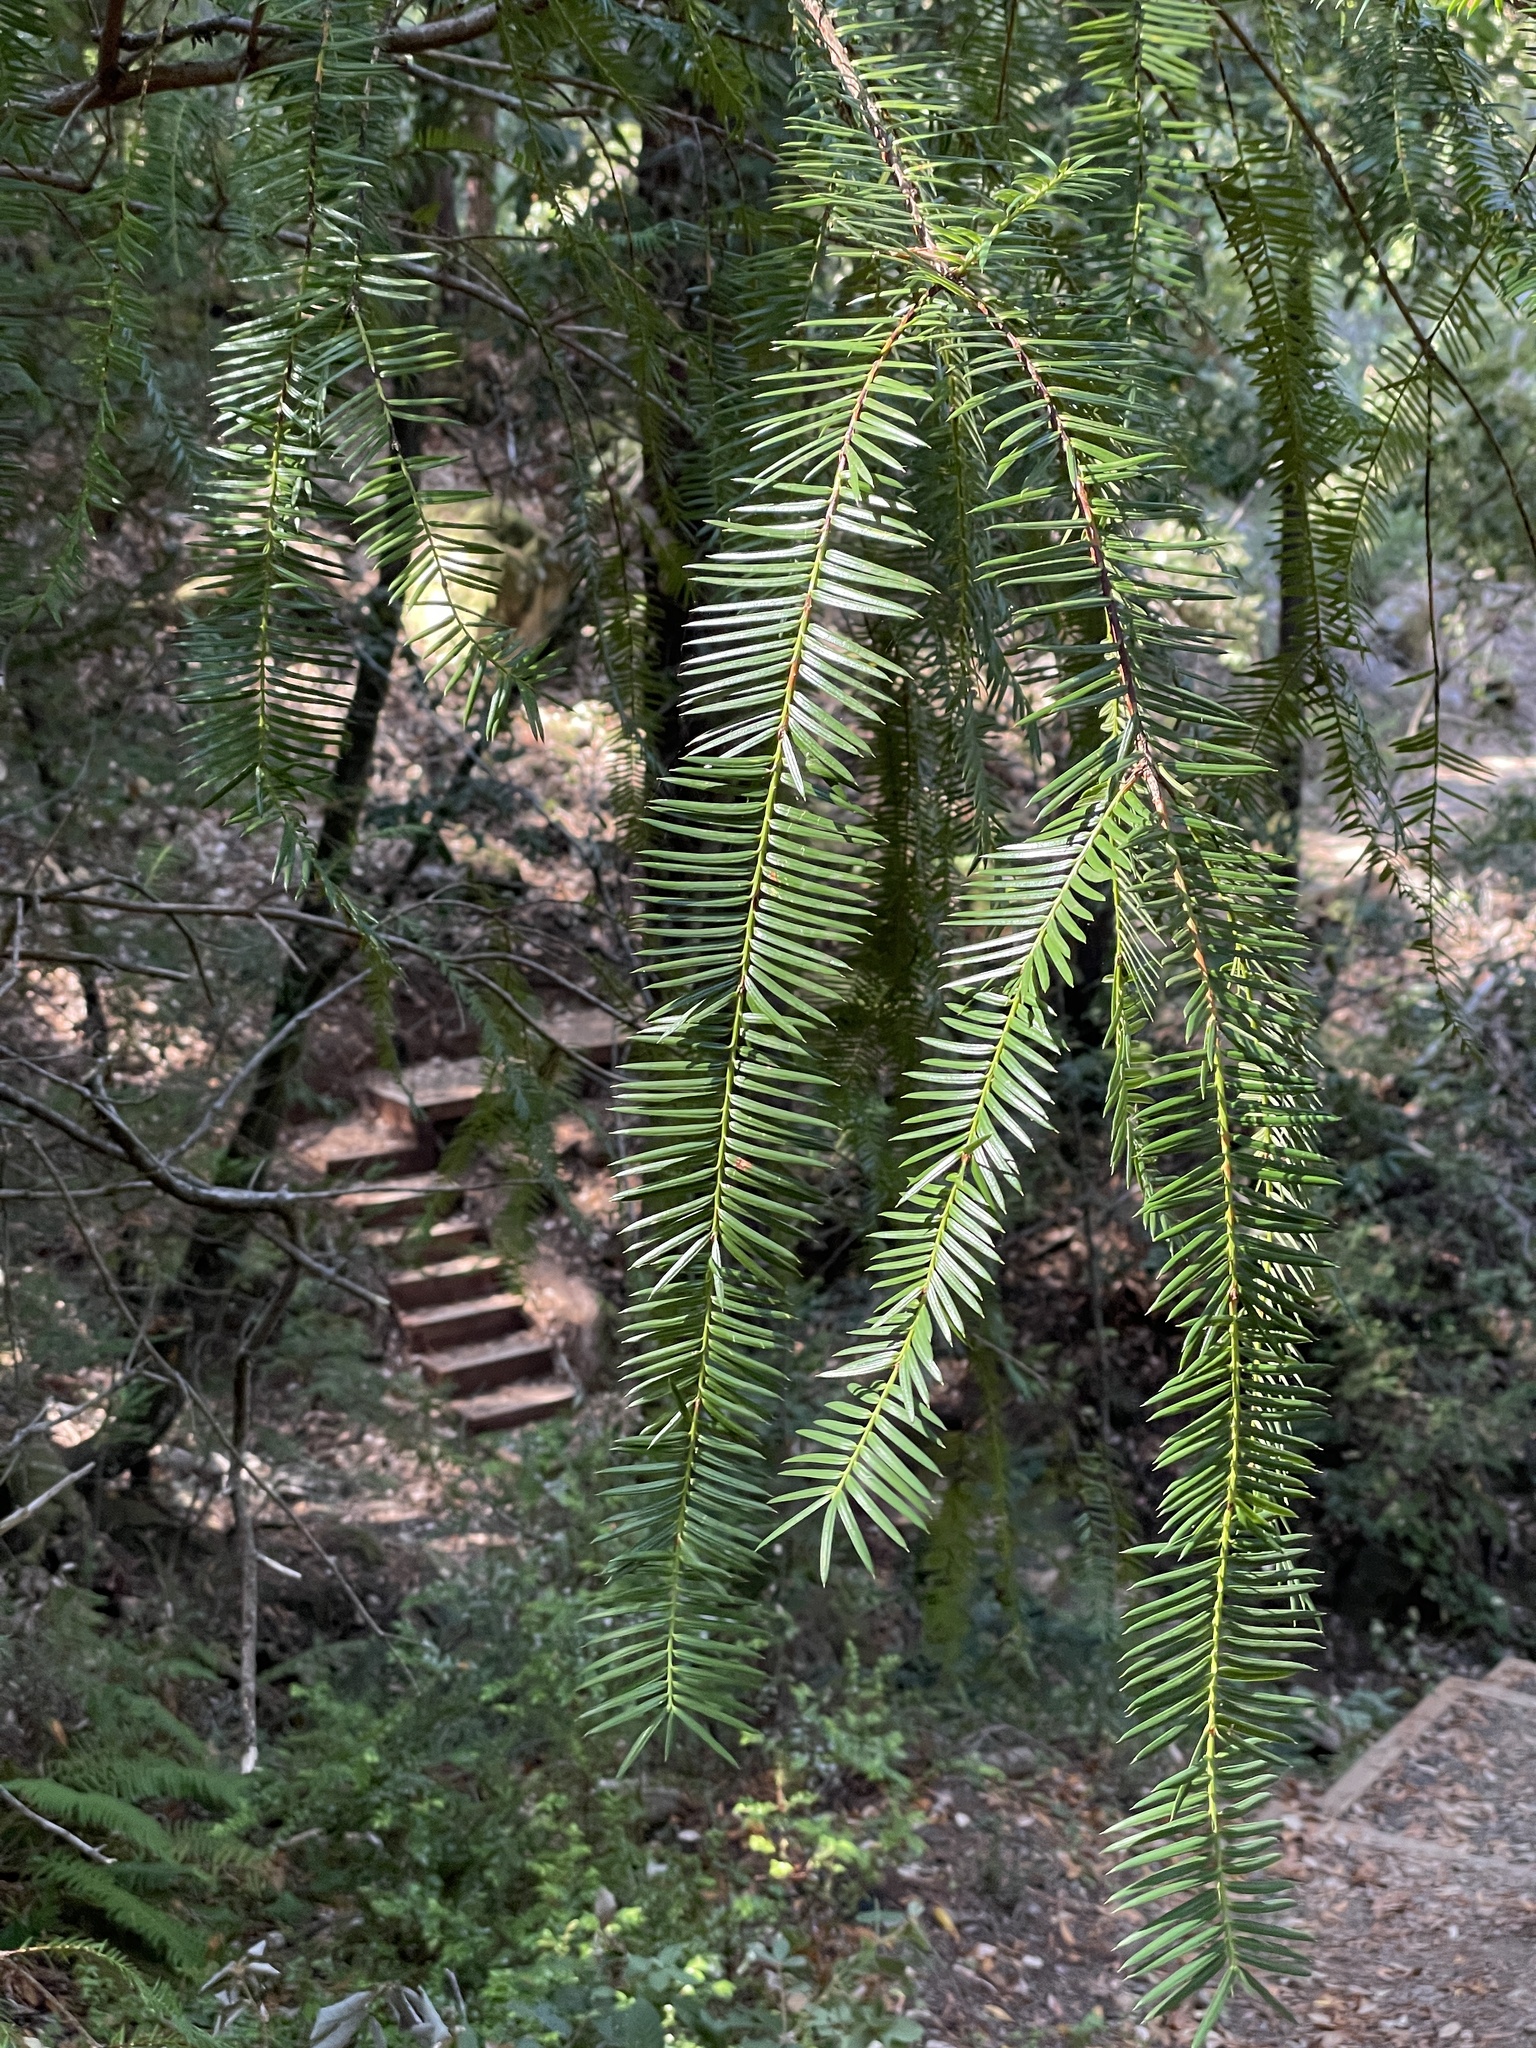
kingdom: Plantae
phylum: Tracheophyta
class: Pinopsida
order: Pinales
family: Taxaceae
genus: Torreya
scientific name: Torreya californica
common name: California torreya
